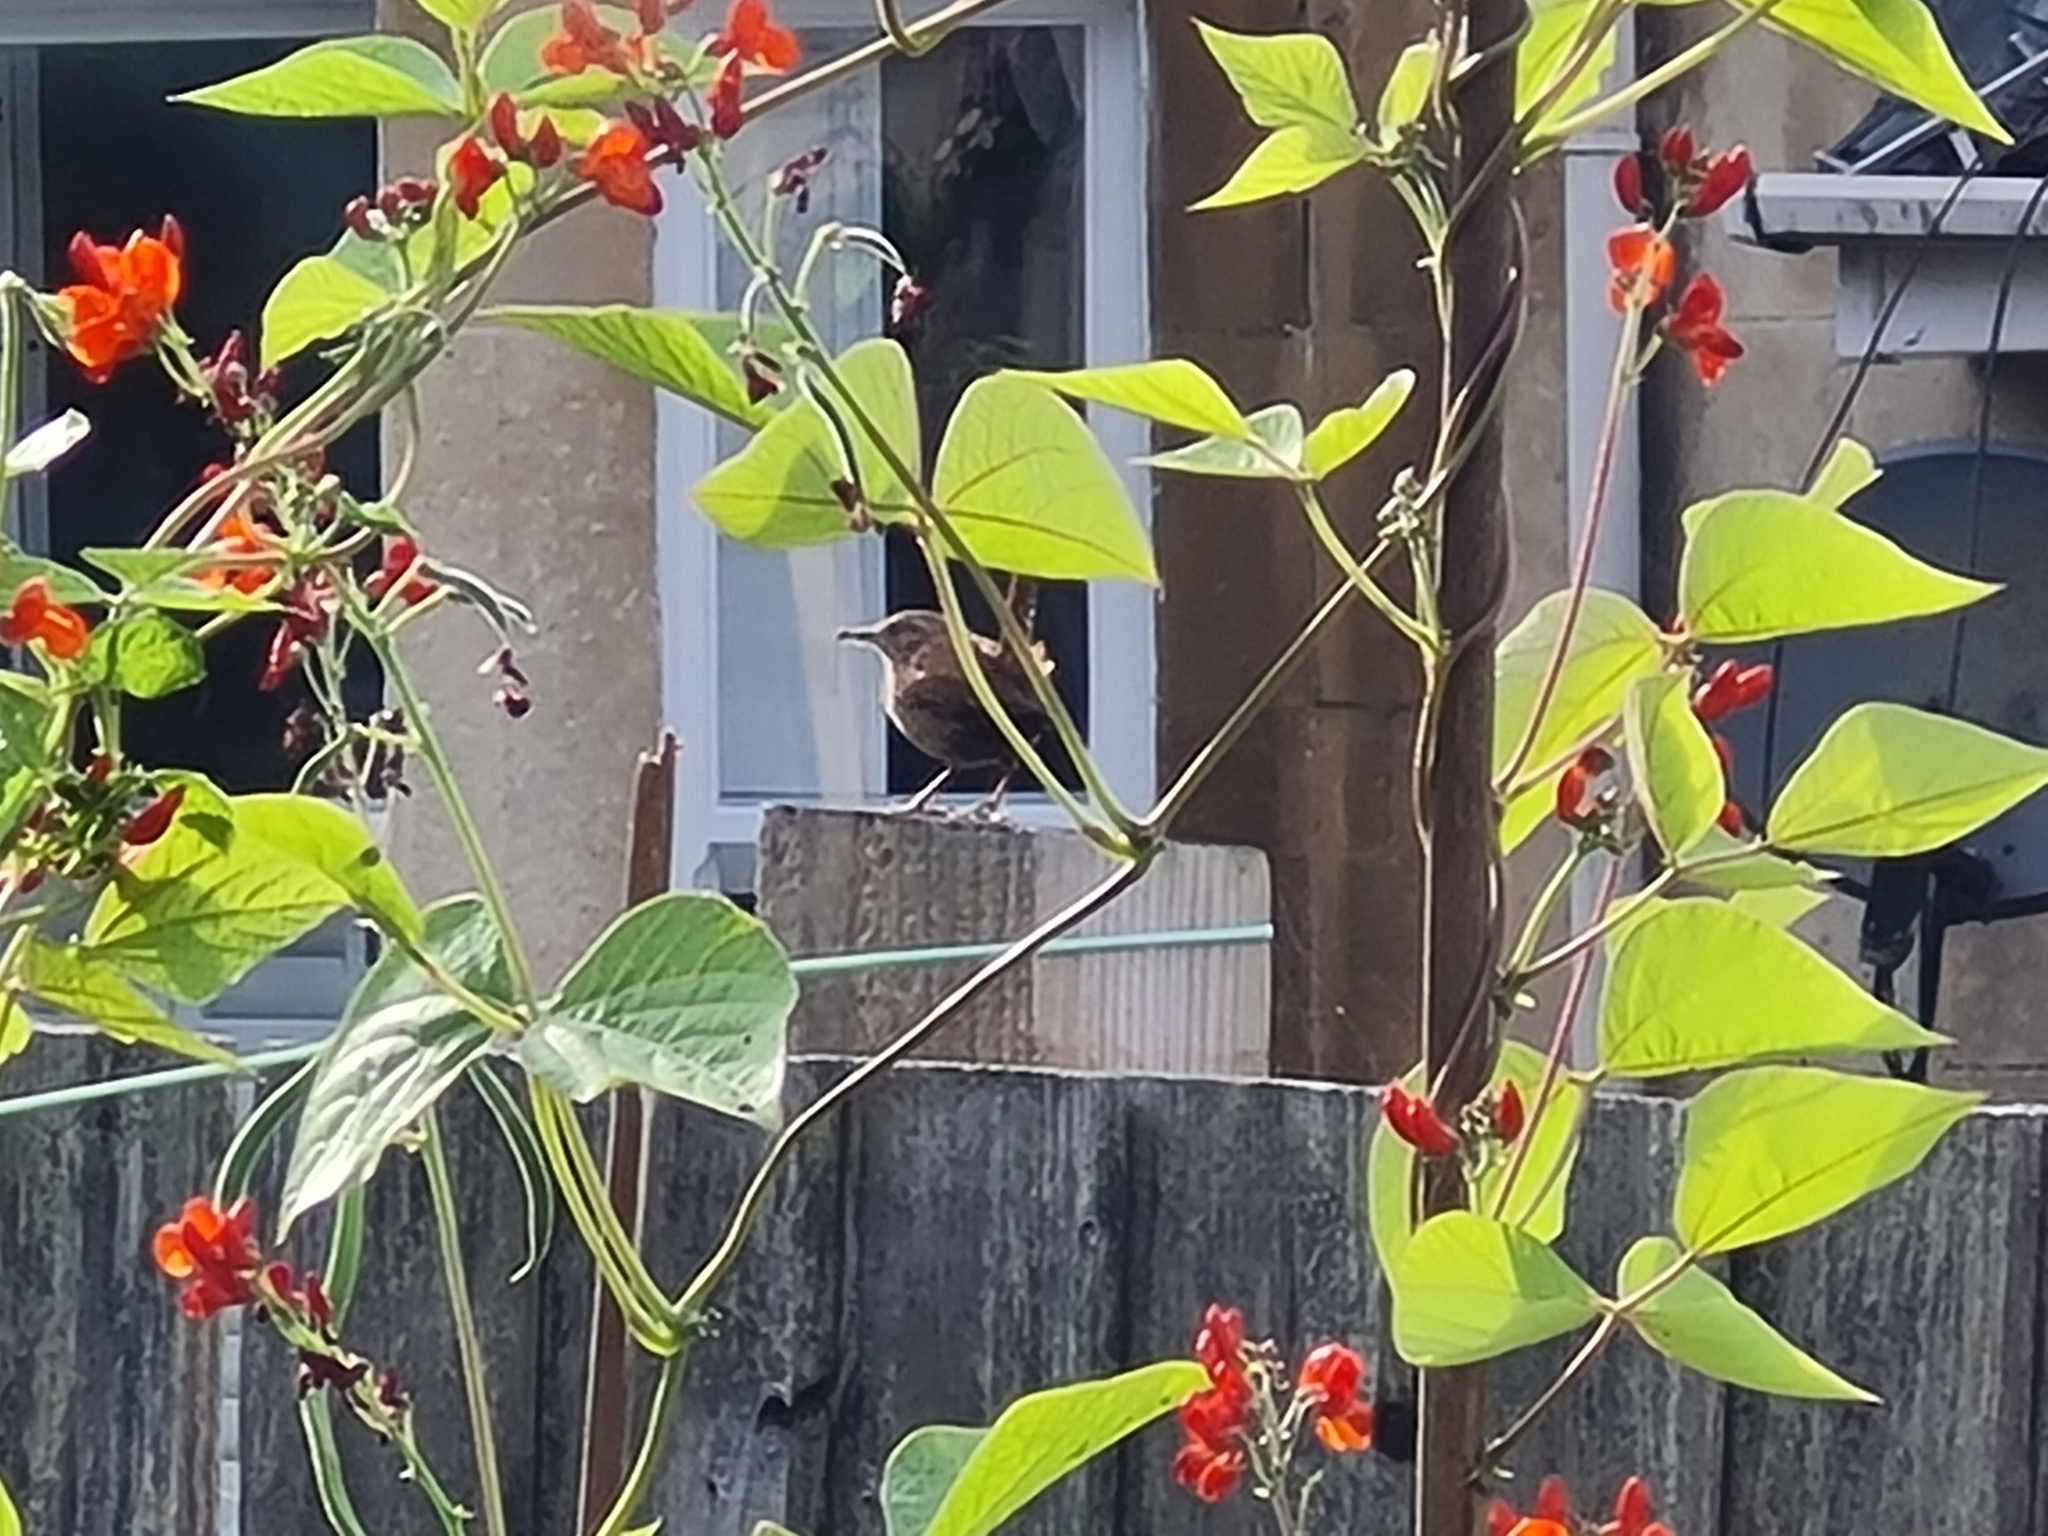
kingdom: Animalia
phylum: Chordata
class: Aves
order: Passeriformes
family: Troglodytidae
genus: Troglodytes
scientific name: Troglodytes troglodytes
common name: Eurasian wren
